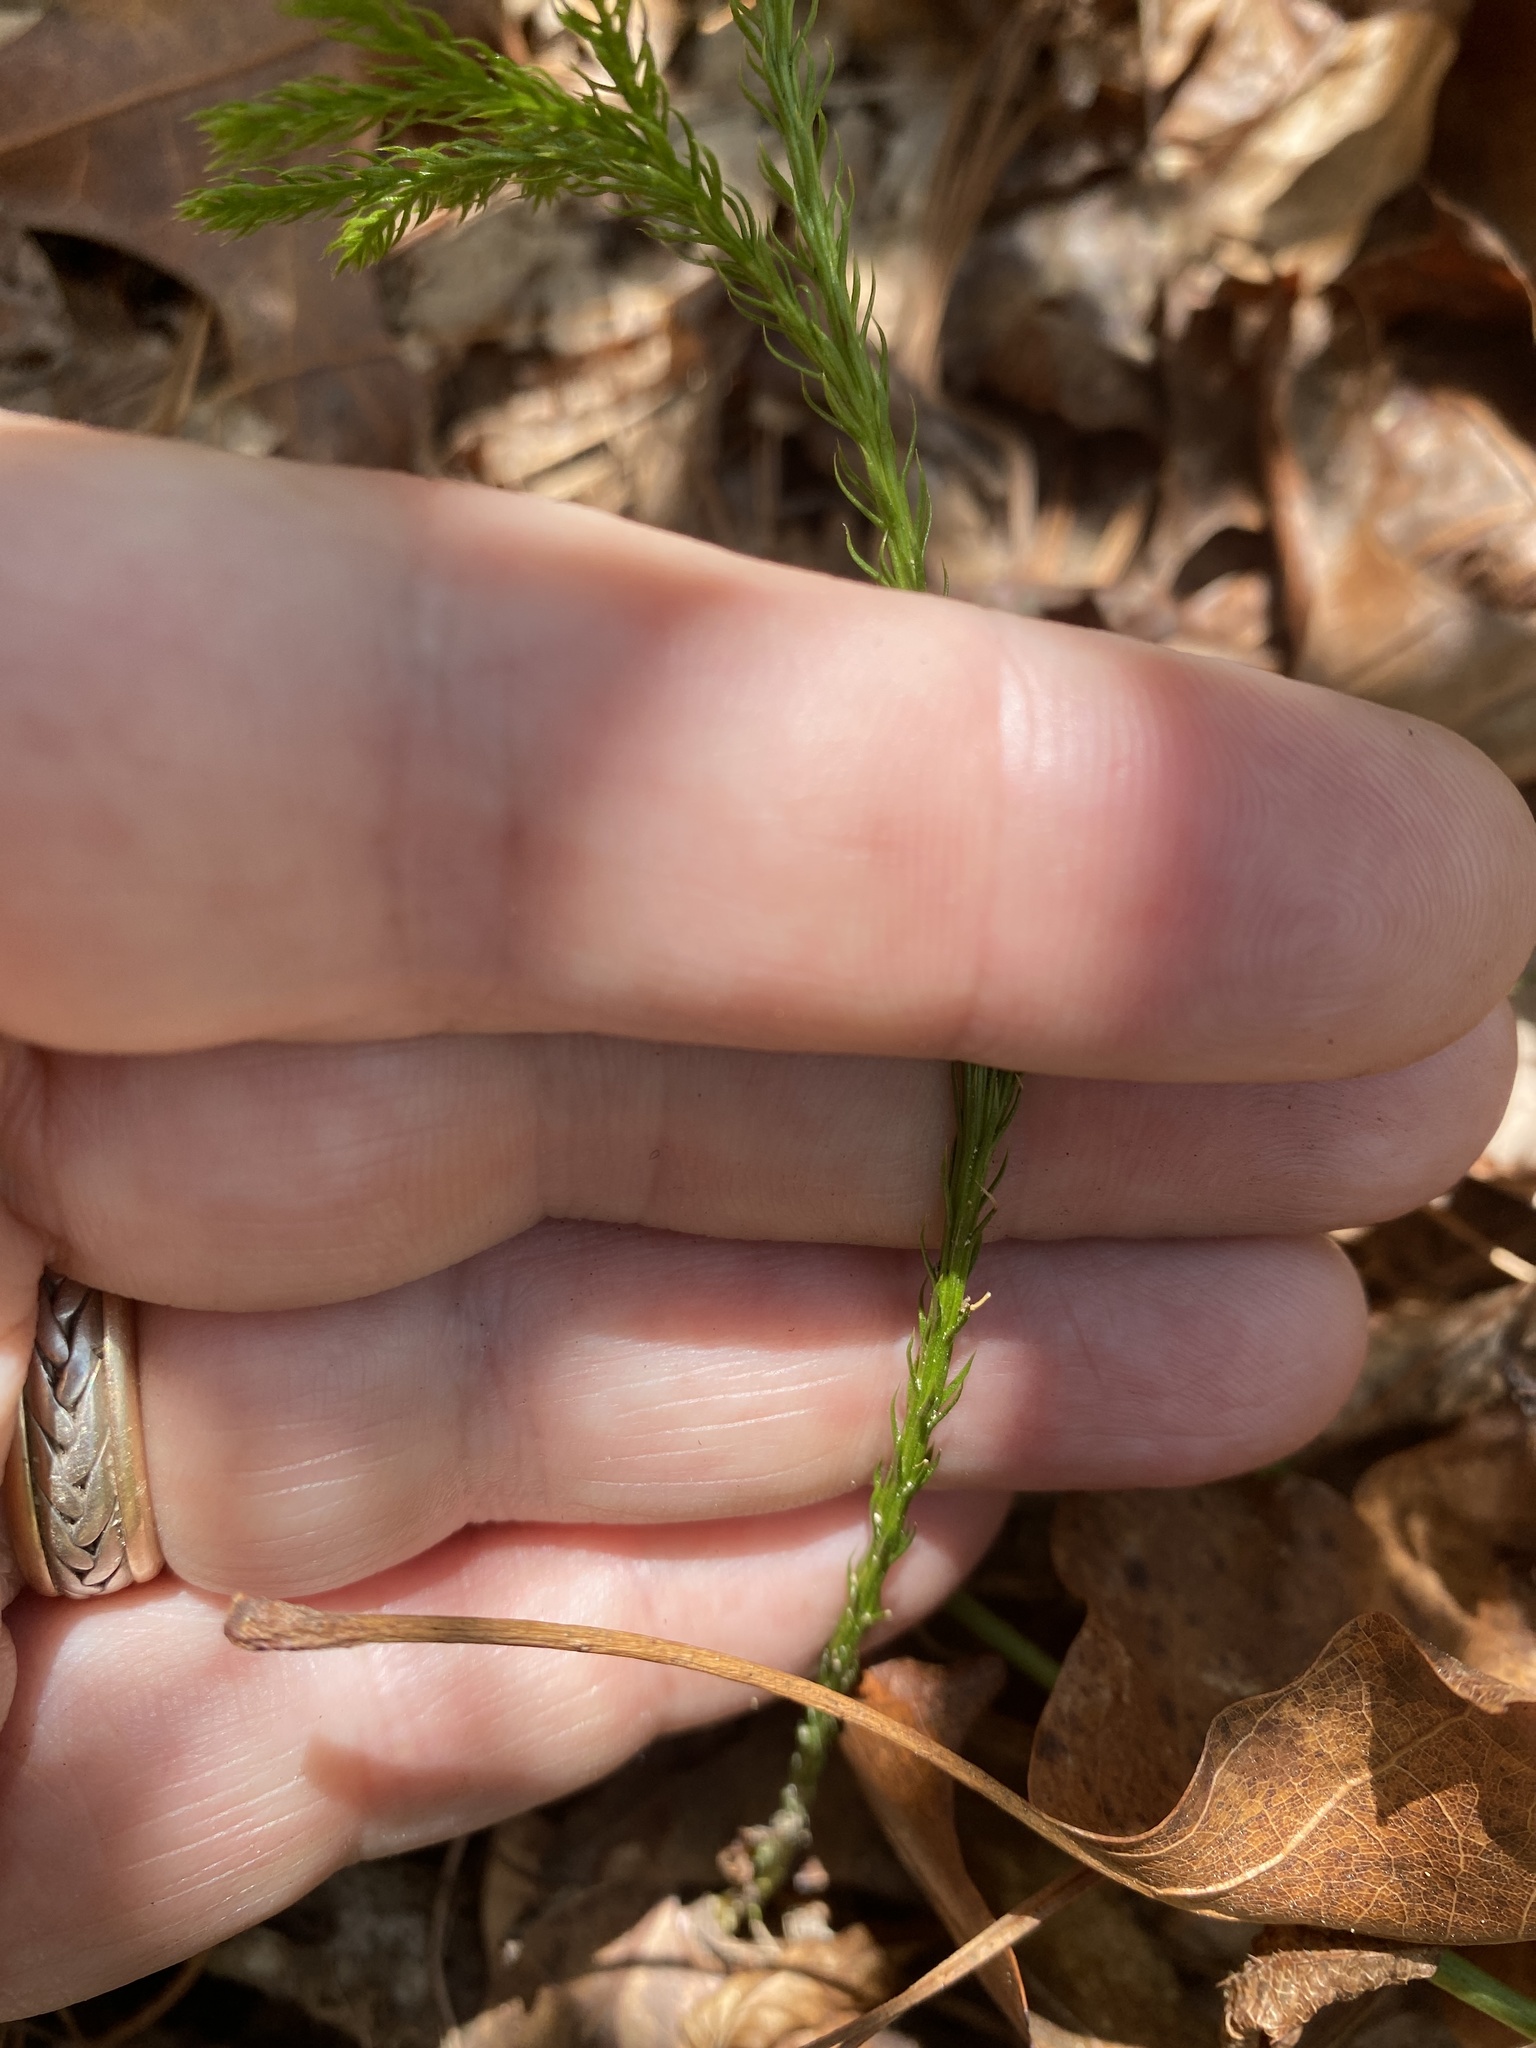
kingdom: Plantae
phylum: Tracheophyta
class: Lycopodiopsida
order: Lycopodiales
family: Lycopodiaceae
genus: Dendrolycopodium
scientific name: Dendrolycopodium hickeyi
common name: Hickey's clubmoss
